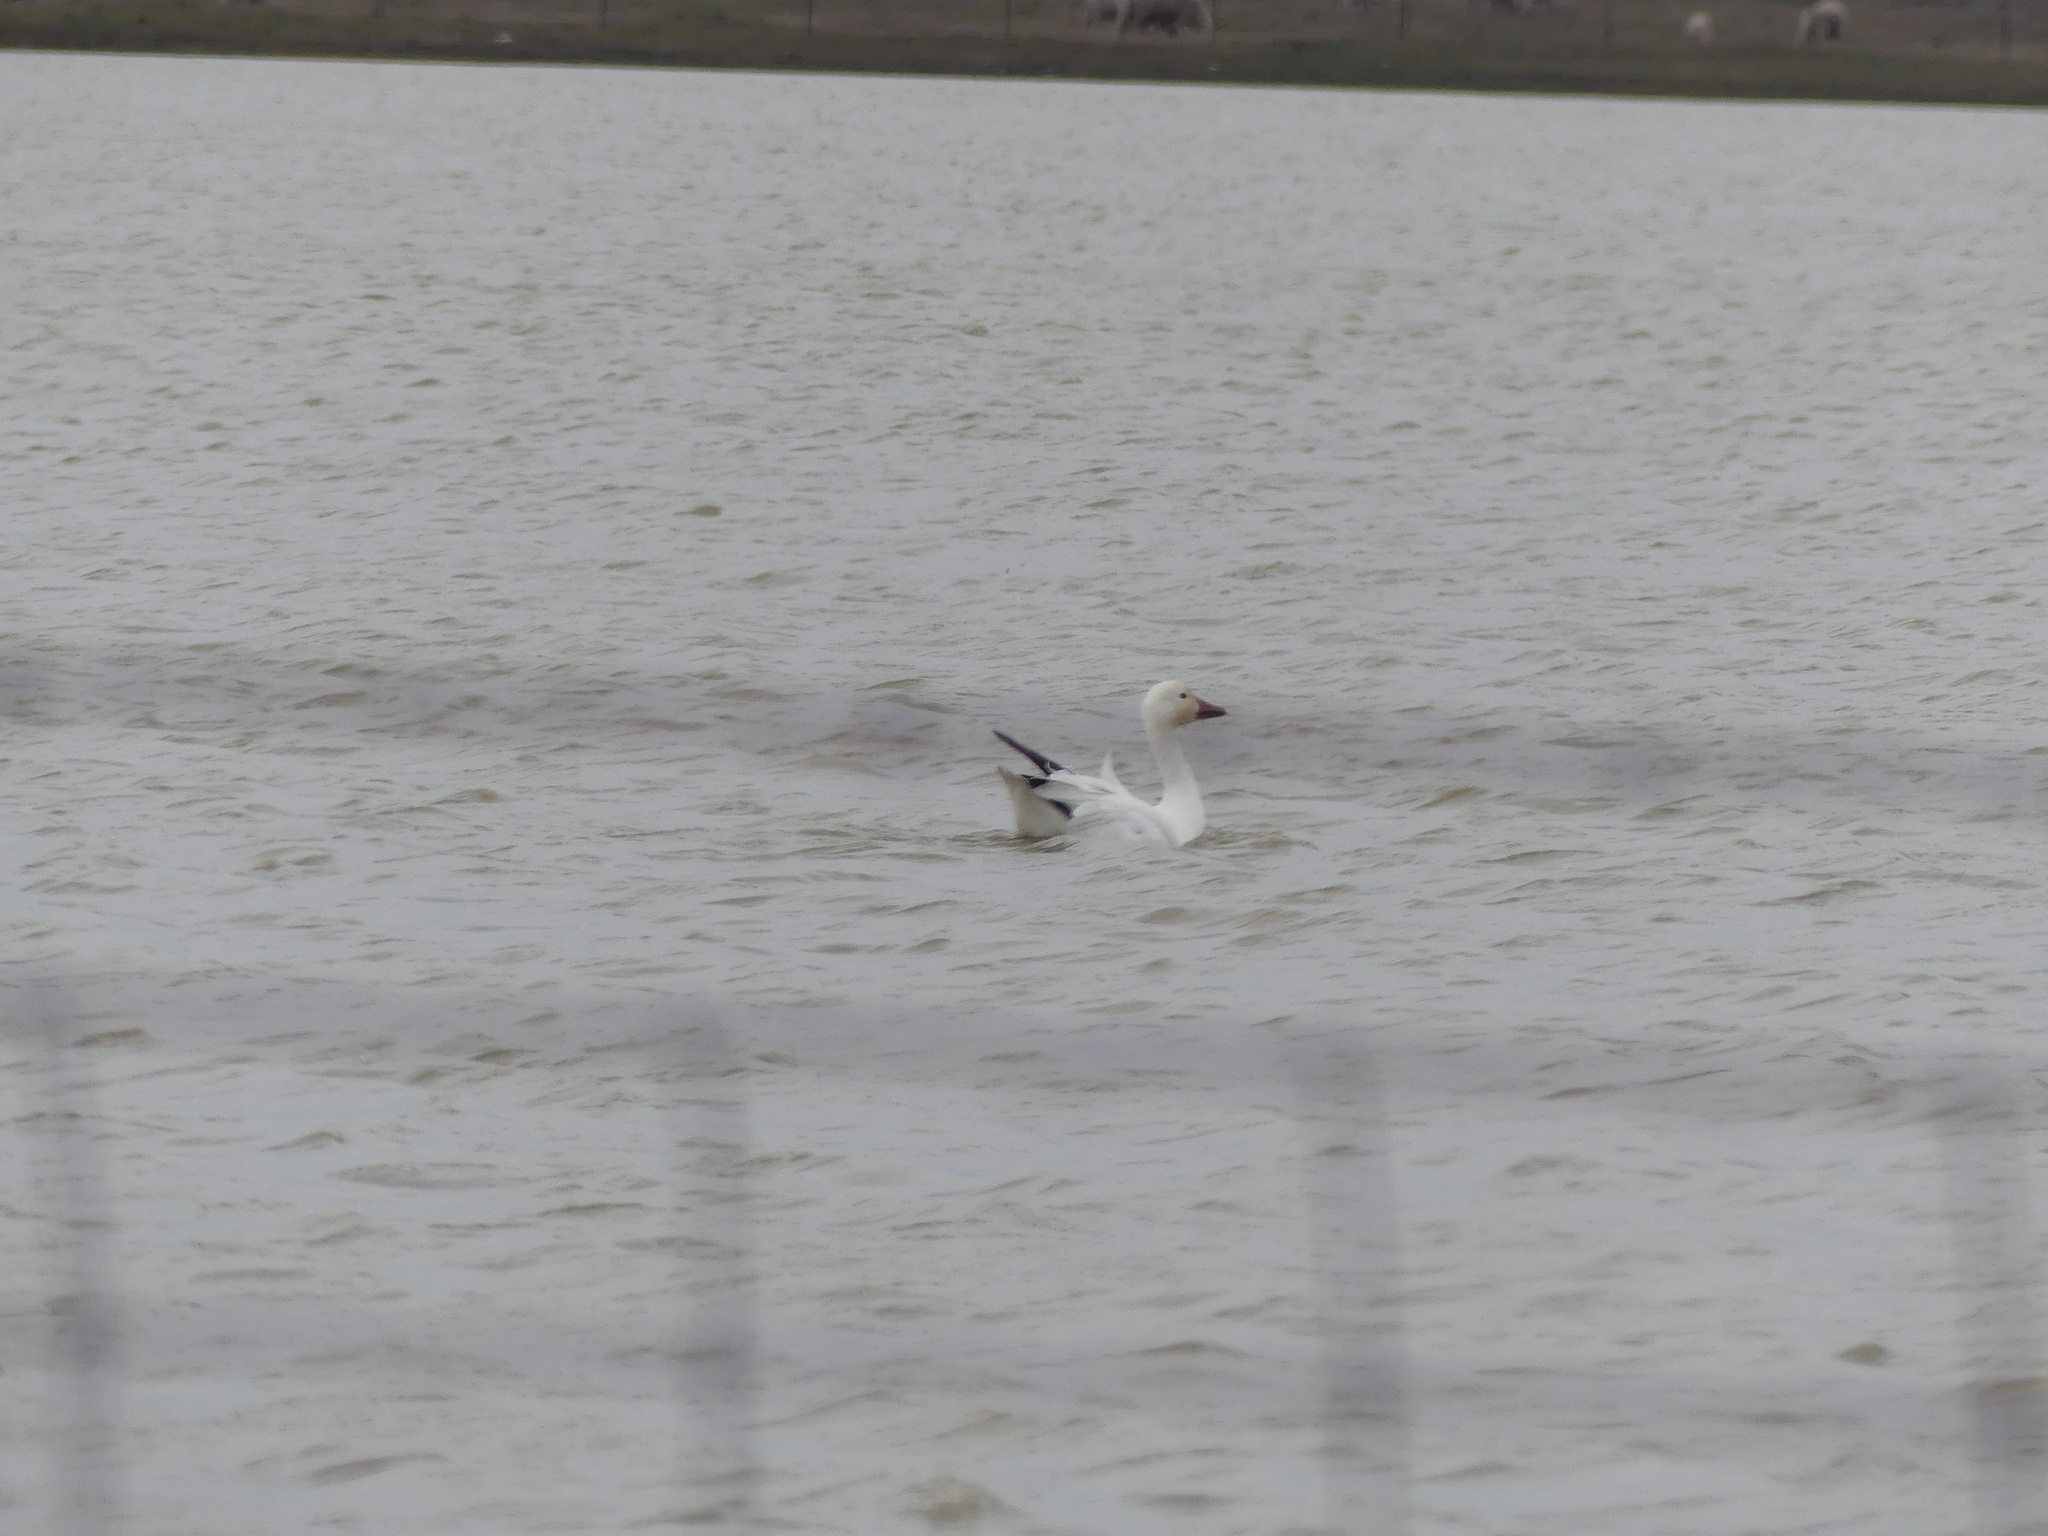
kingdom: Animalia
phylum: Chordata
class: Aves
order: Anseriformes
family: Anatidae
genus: Anser
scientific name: Anser caerulescens
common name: Snow goose
